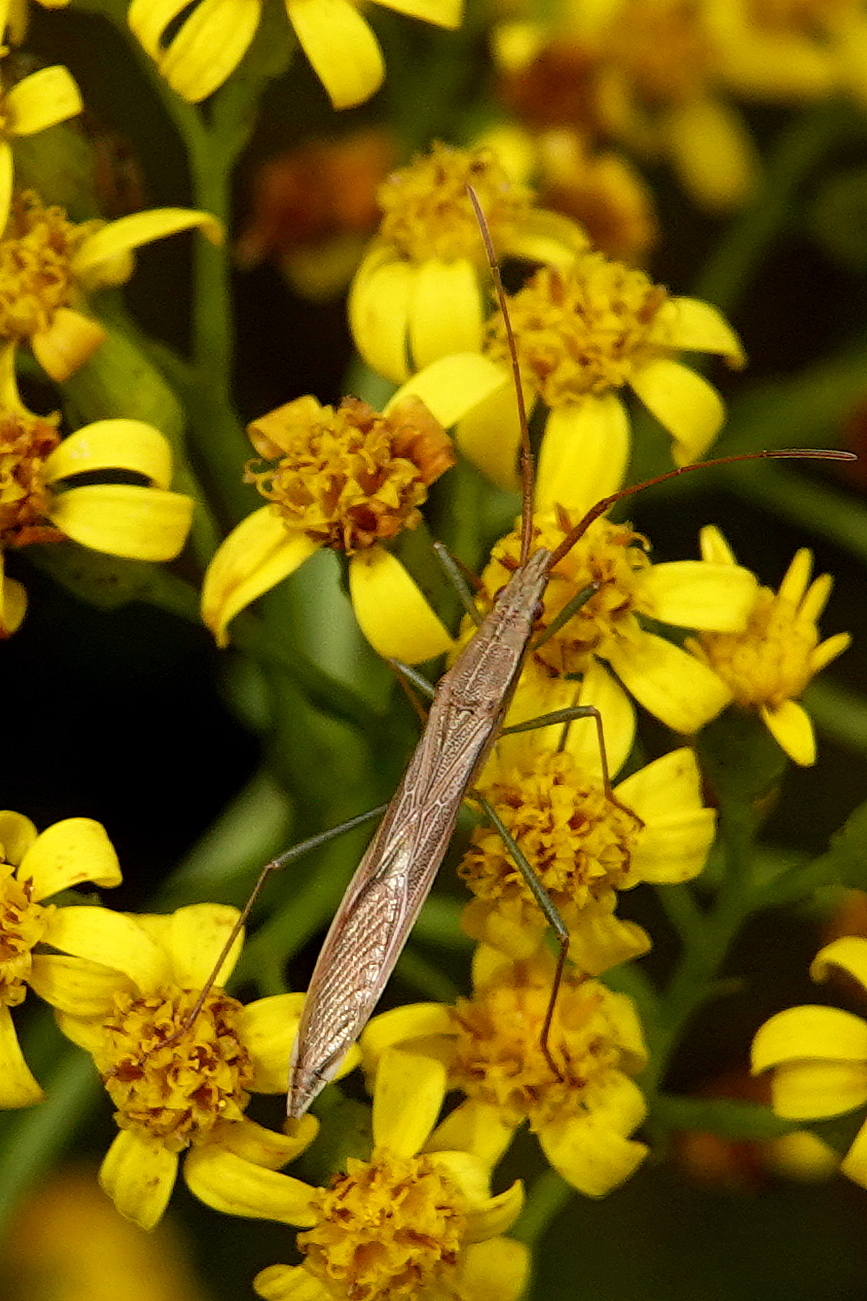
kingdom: Animalia
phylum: Arthropoda
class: Insecta
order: Hemiptera
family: Alydidae
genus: Mutusca
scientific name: Mutusca brevicornis
